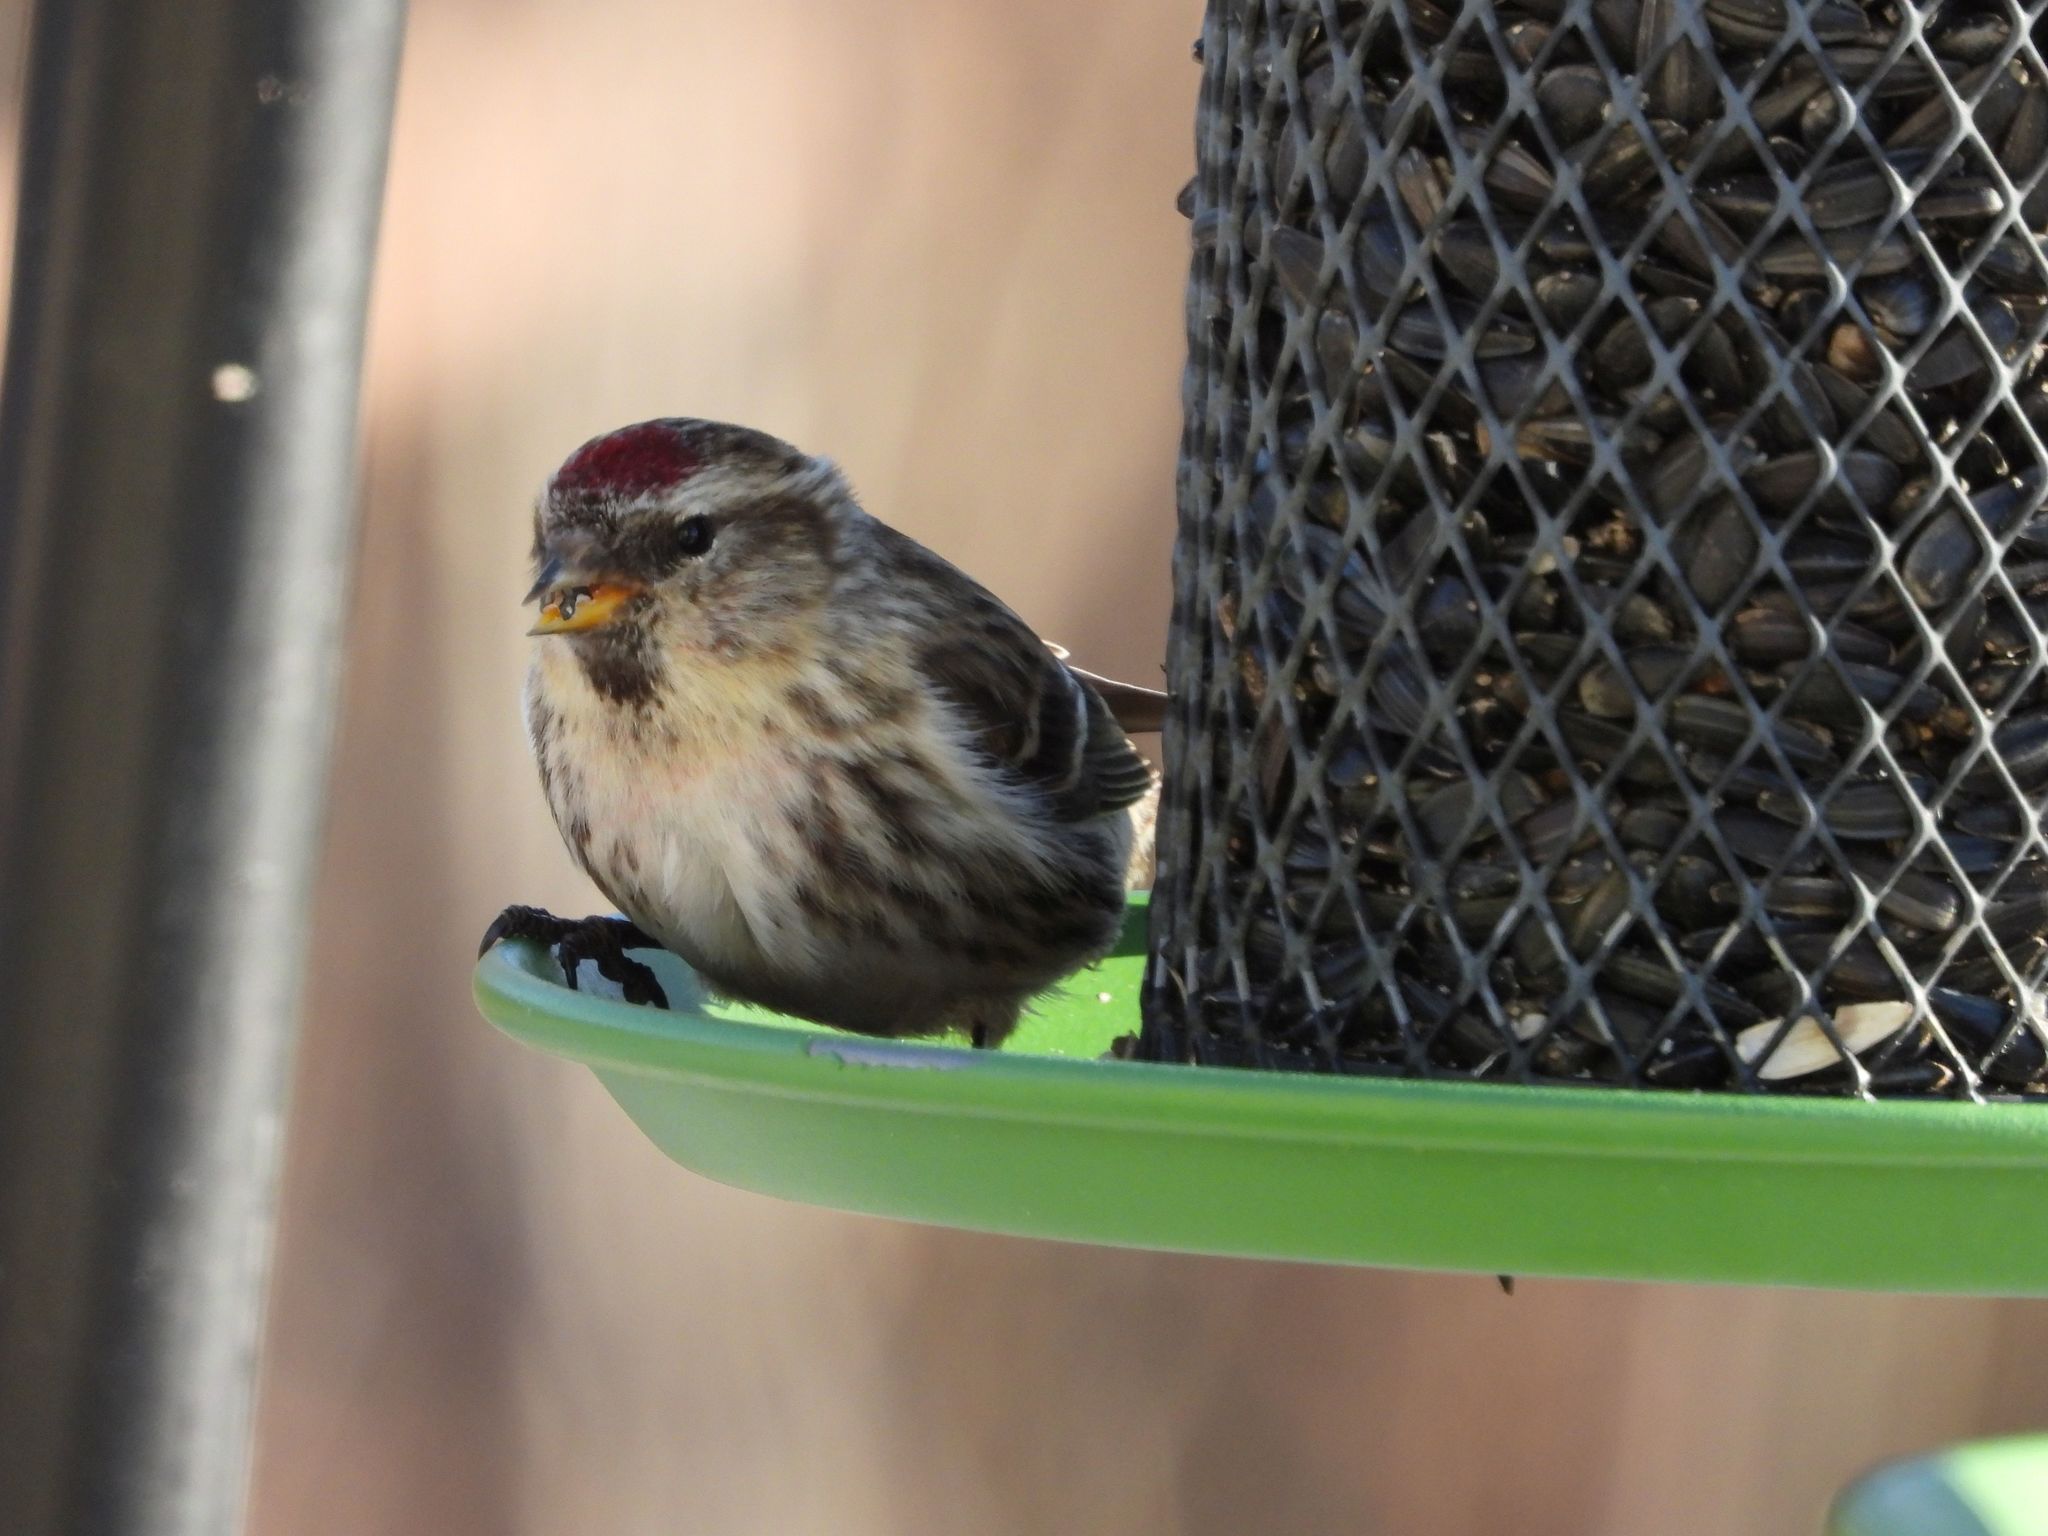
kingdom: Animalia
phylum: Chordata
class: Aves
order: Passeriformes
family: Fringillidae
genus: Acanthis
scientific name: Acanthis flammea
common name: Common redpoll
